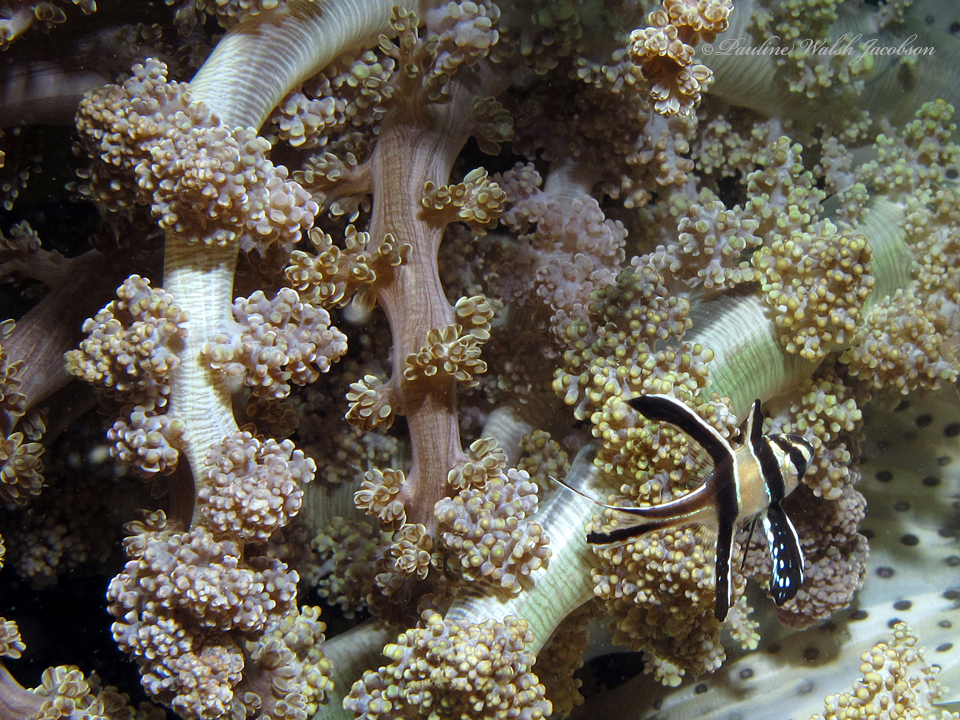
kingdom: Animalia
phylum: Chordata
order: Perciformes
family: Apogonidae
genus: Pterapogon
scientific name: Pterapogon kauderni
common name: Banggai cardinalfish
